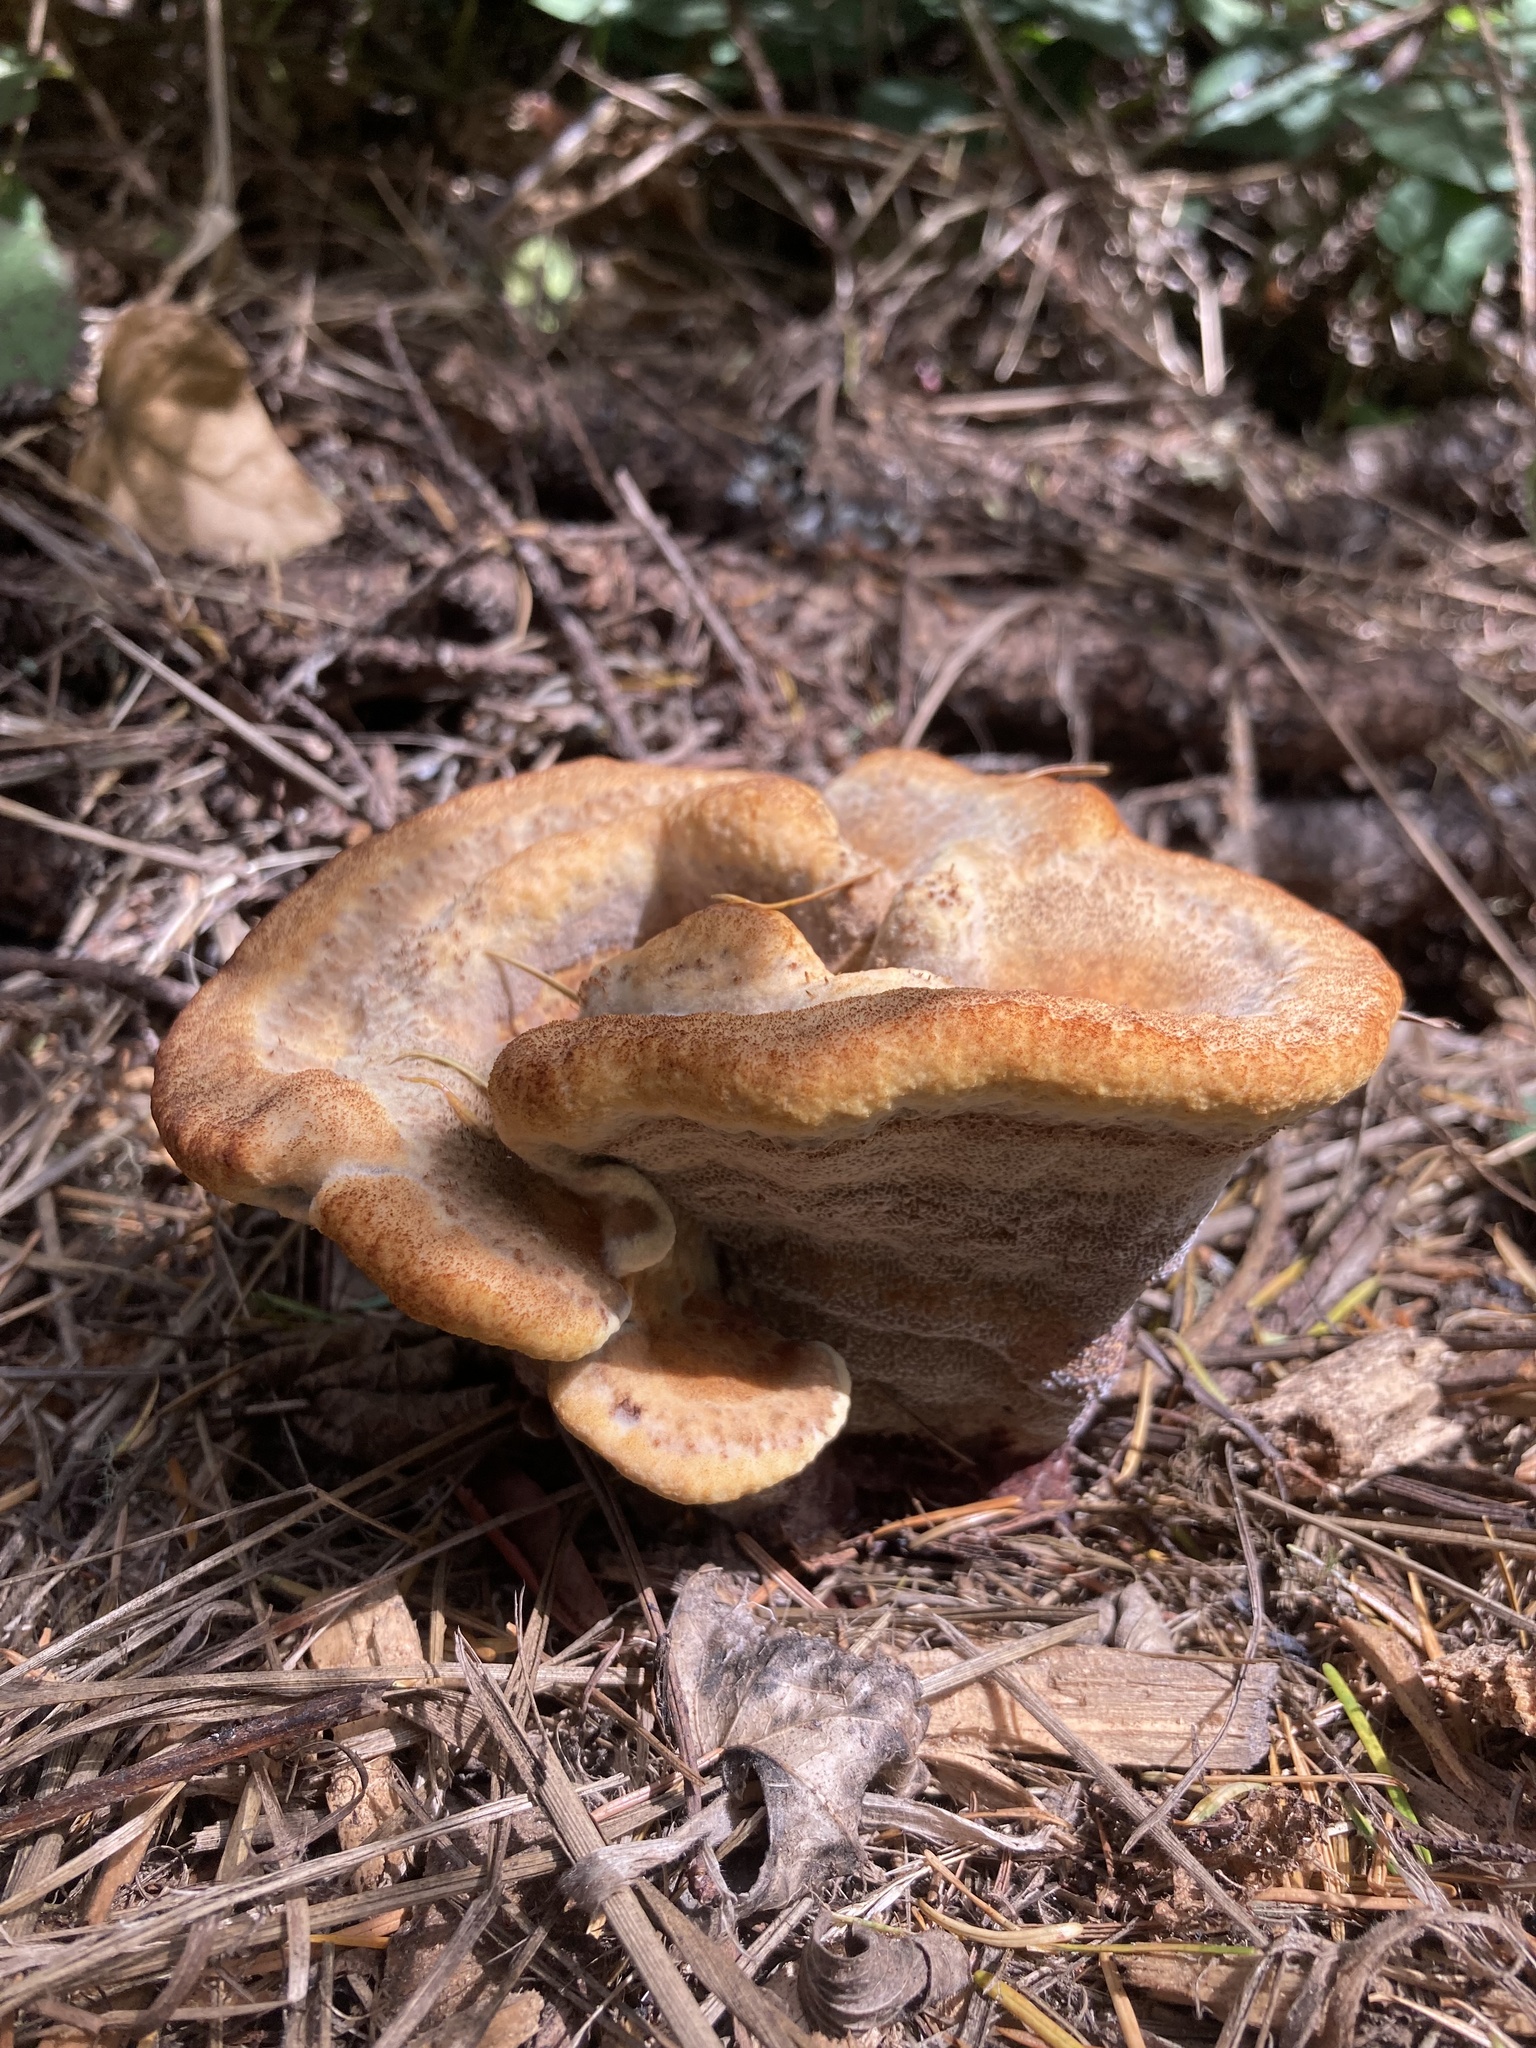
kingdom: Fungi
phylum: Basidiomycota
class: Agaricomycetes
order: Polyporales
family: Laetiporaceae
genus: Phaeolus
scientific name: Phaeolus schweinitzii
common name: Dyer's mazegill
